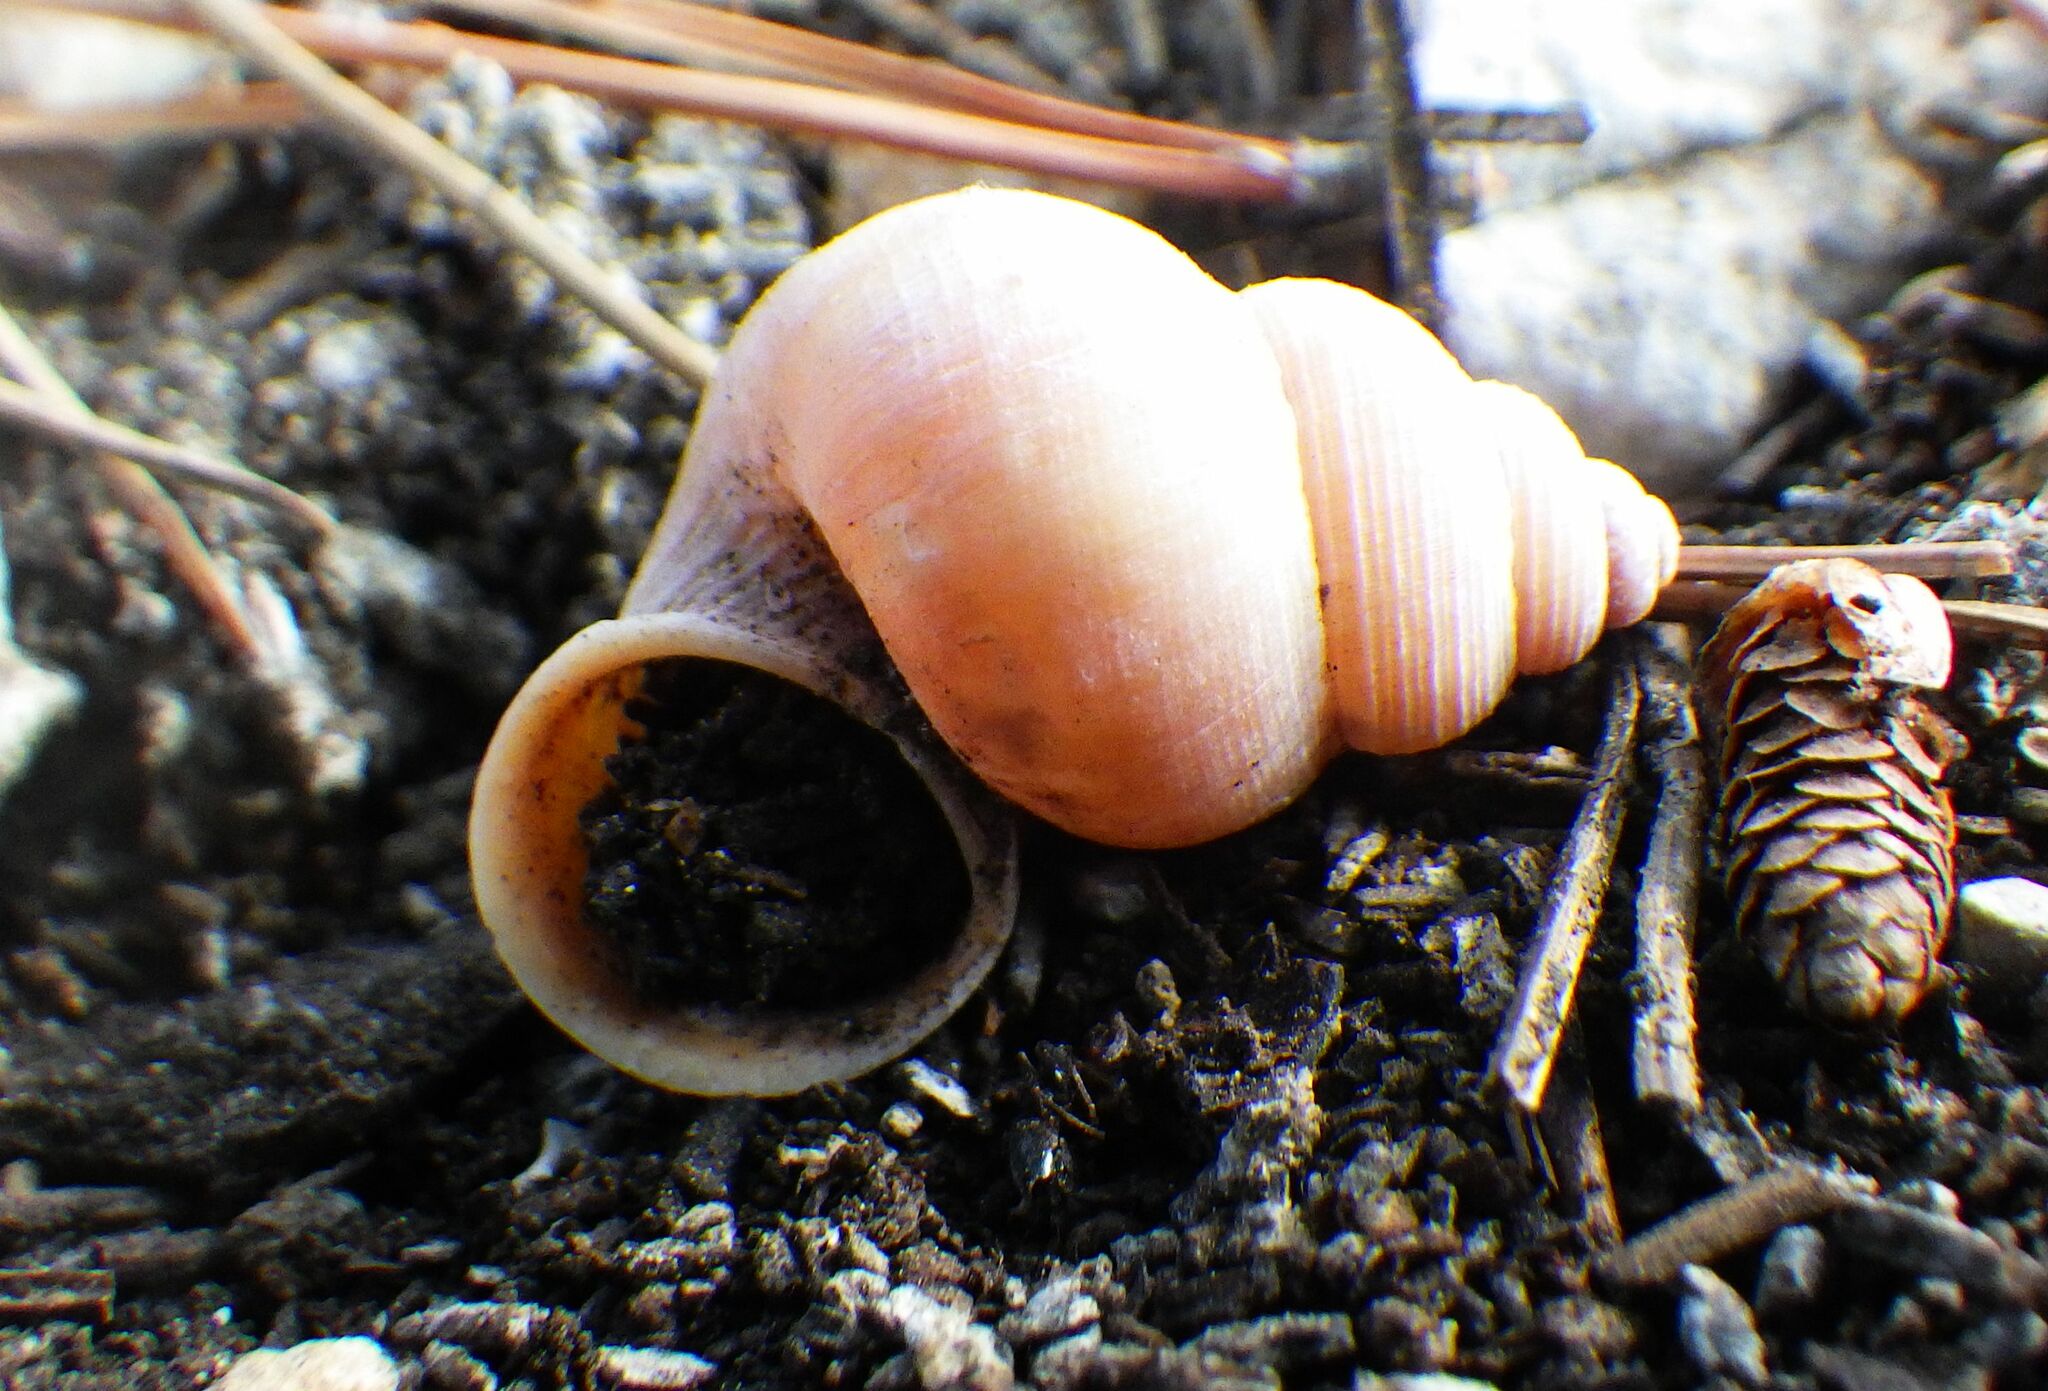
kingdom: Animalia
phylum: Mollusca
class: Gastropoda
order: Littorinimorpha
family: Pomatiidae
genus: Tudorella
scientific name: Tudorella sulcata
